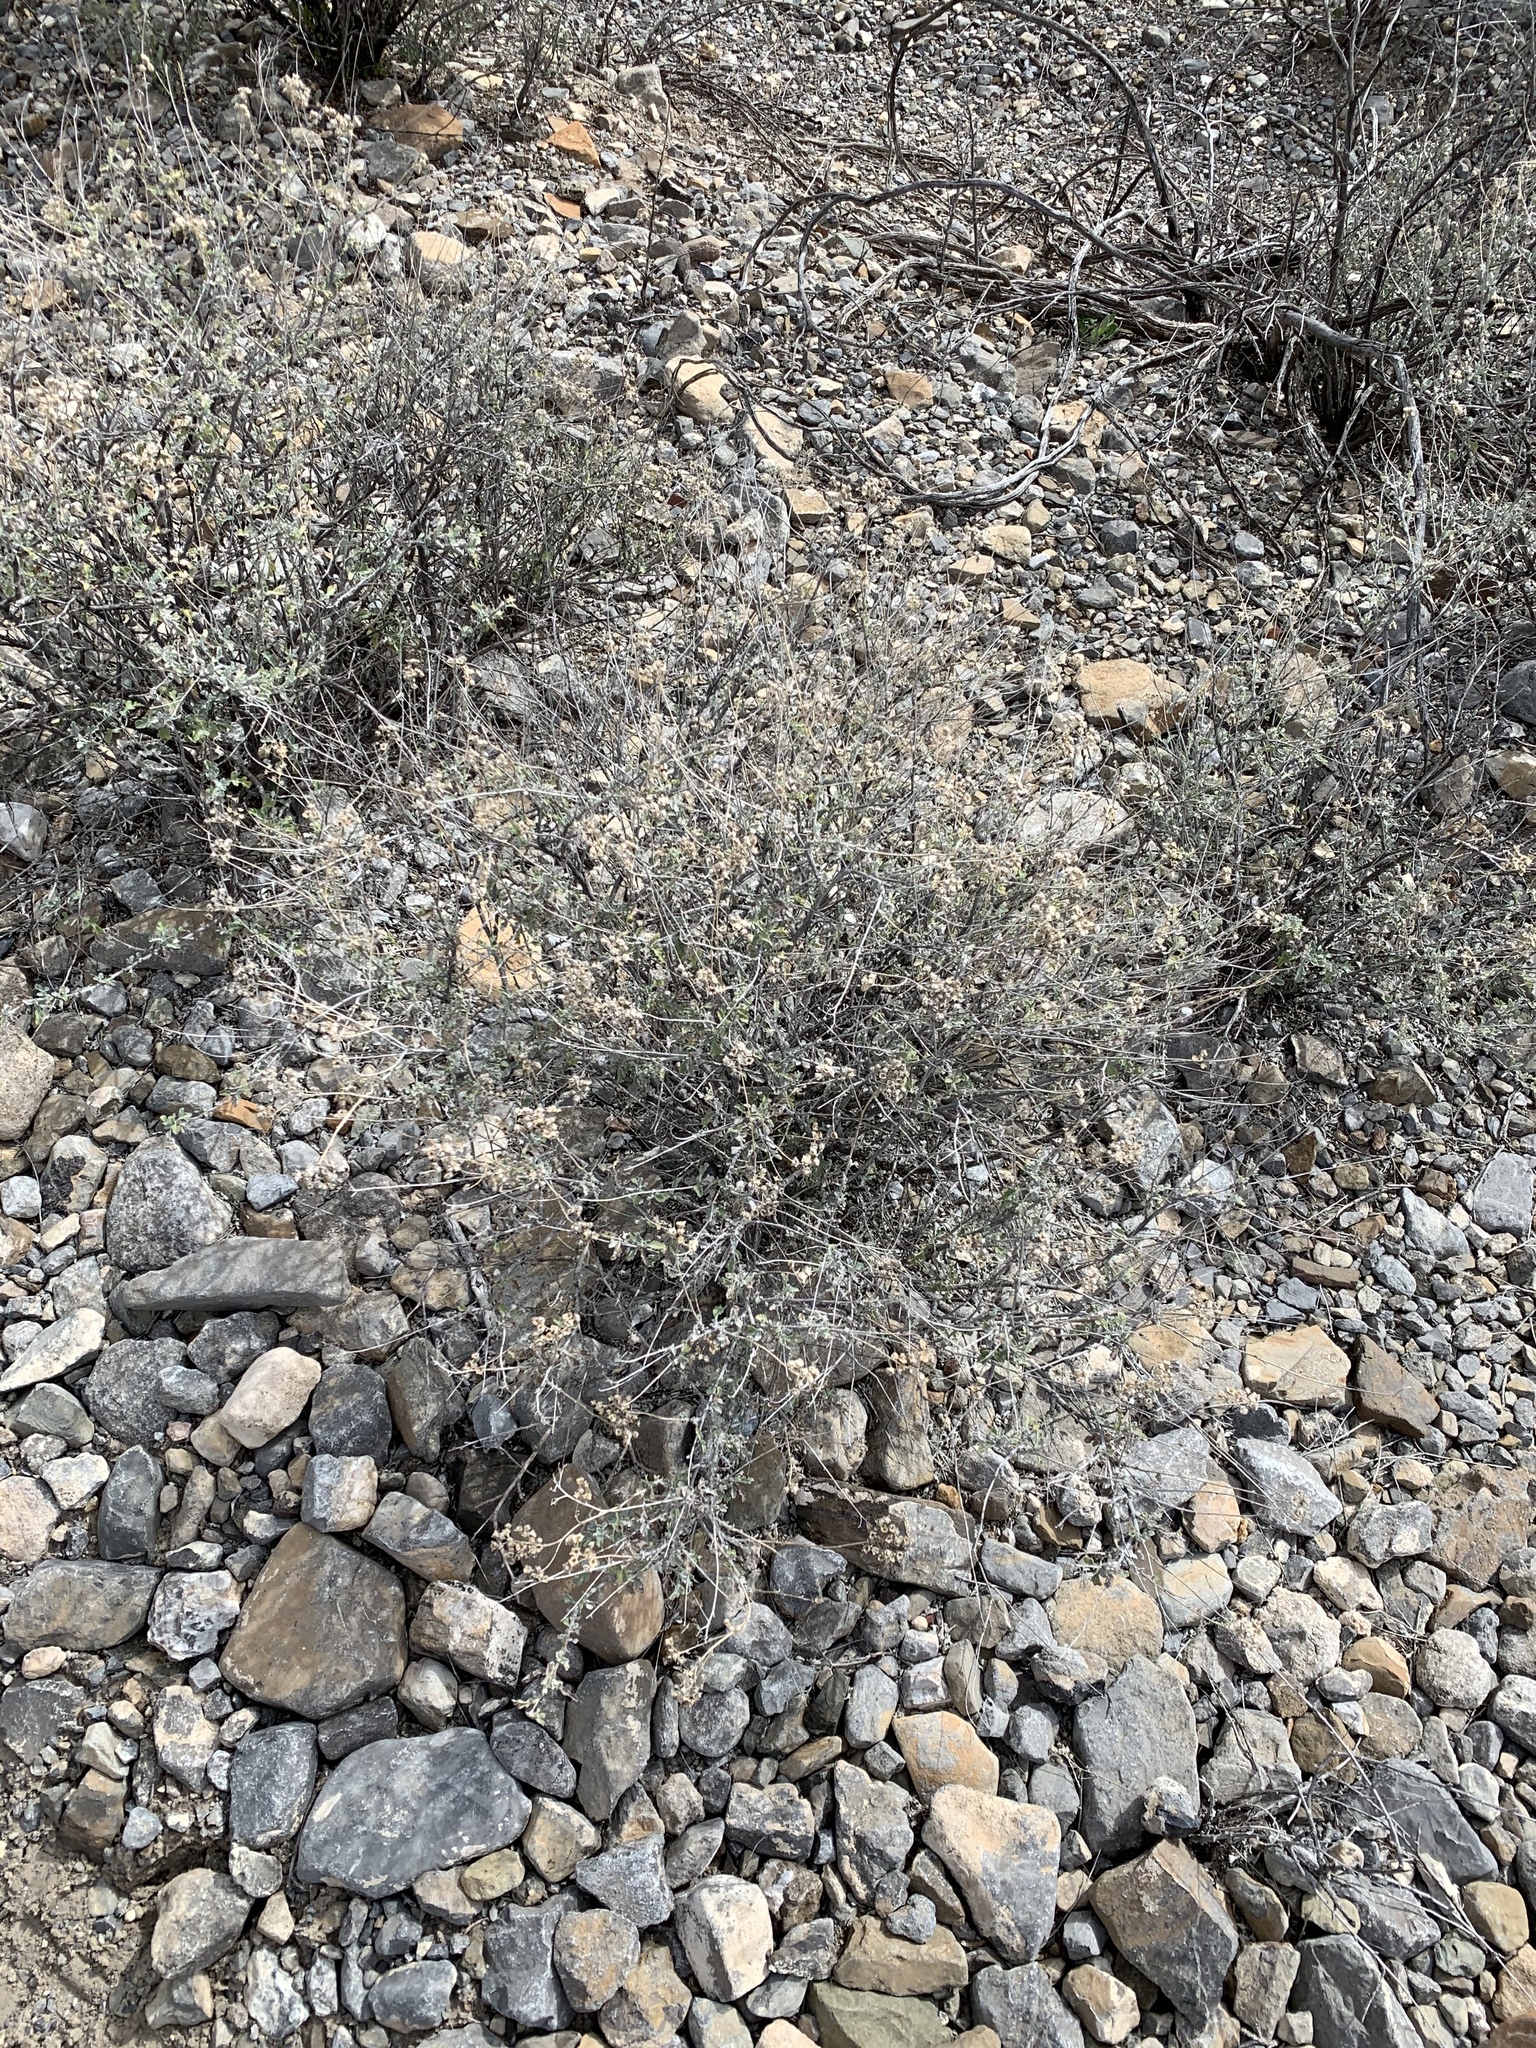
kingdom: Plantae
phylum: Tracheophyta
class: Magnoliopsida
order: Asterales
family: Asteraceae
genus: Parthenium
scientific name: Parthenium incanum
